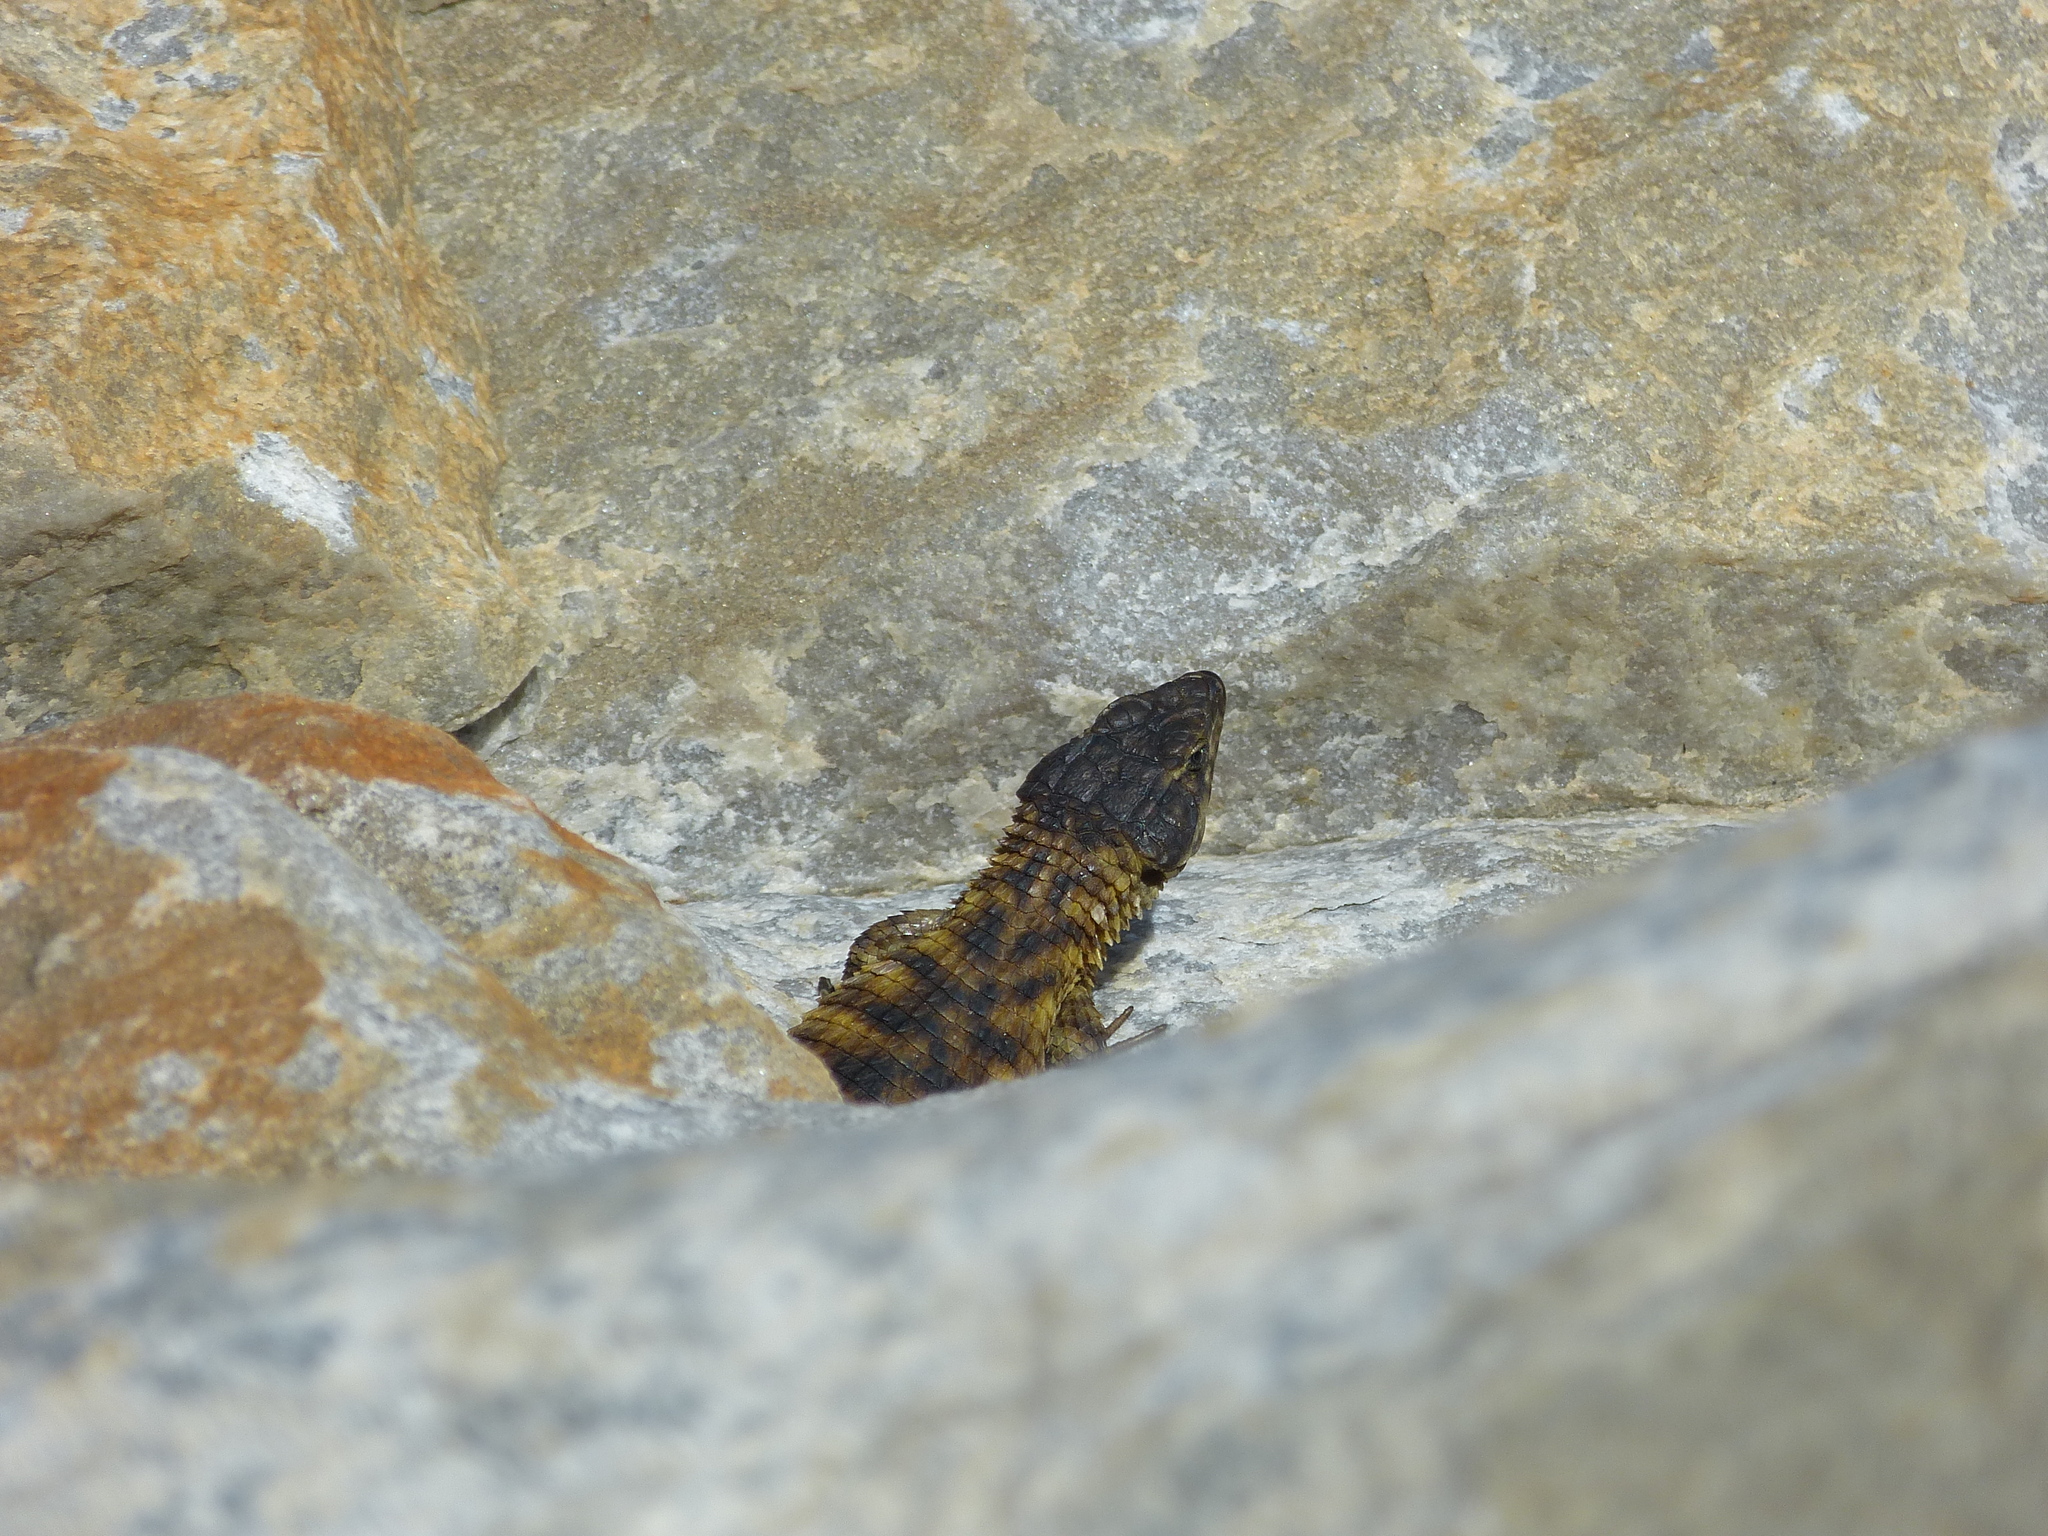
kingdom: Animalia
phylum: Chordata
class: Squamata
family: Cordylidae
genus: Cordylus
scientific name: Cordylus cordylus
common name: Cape girdled lizard
